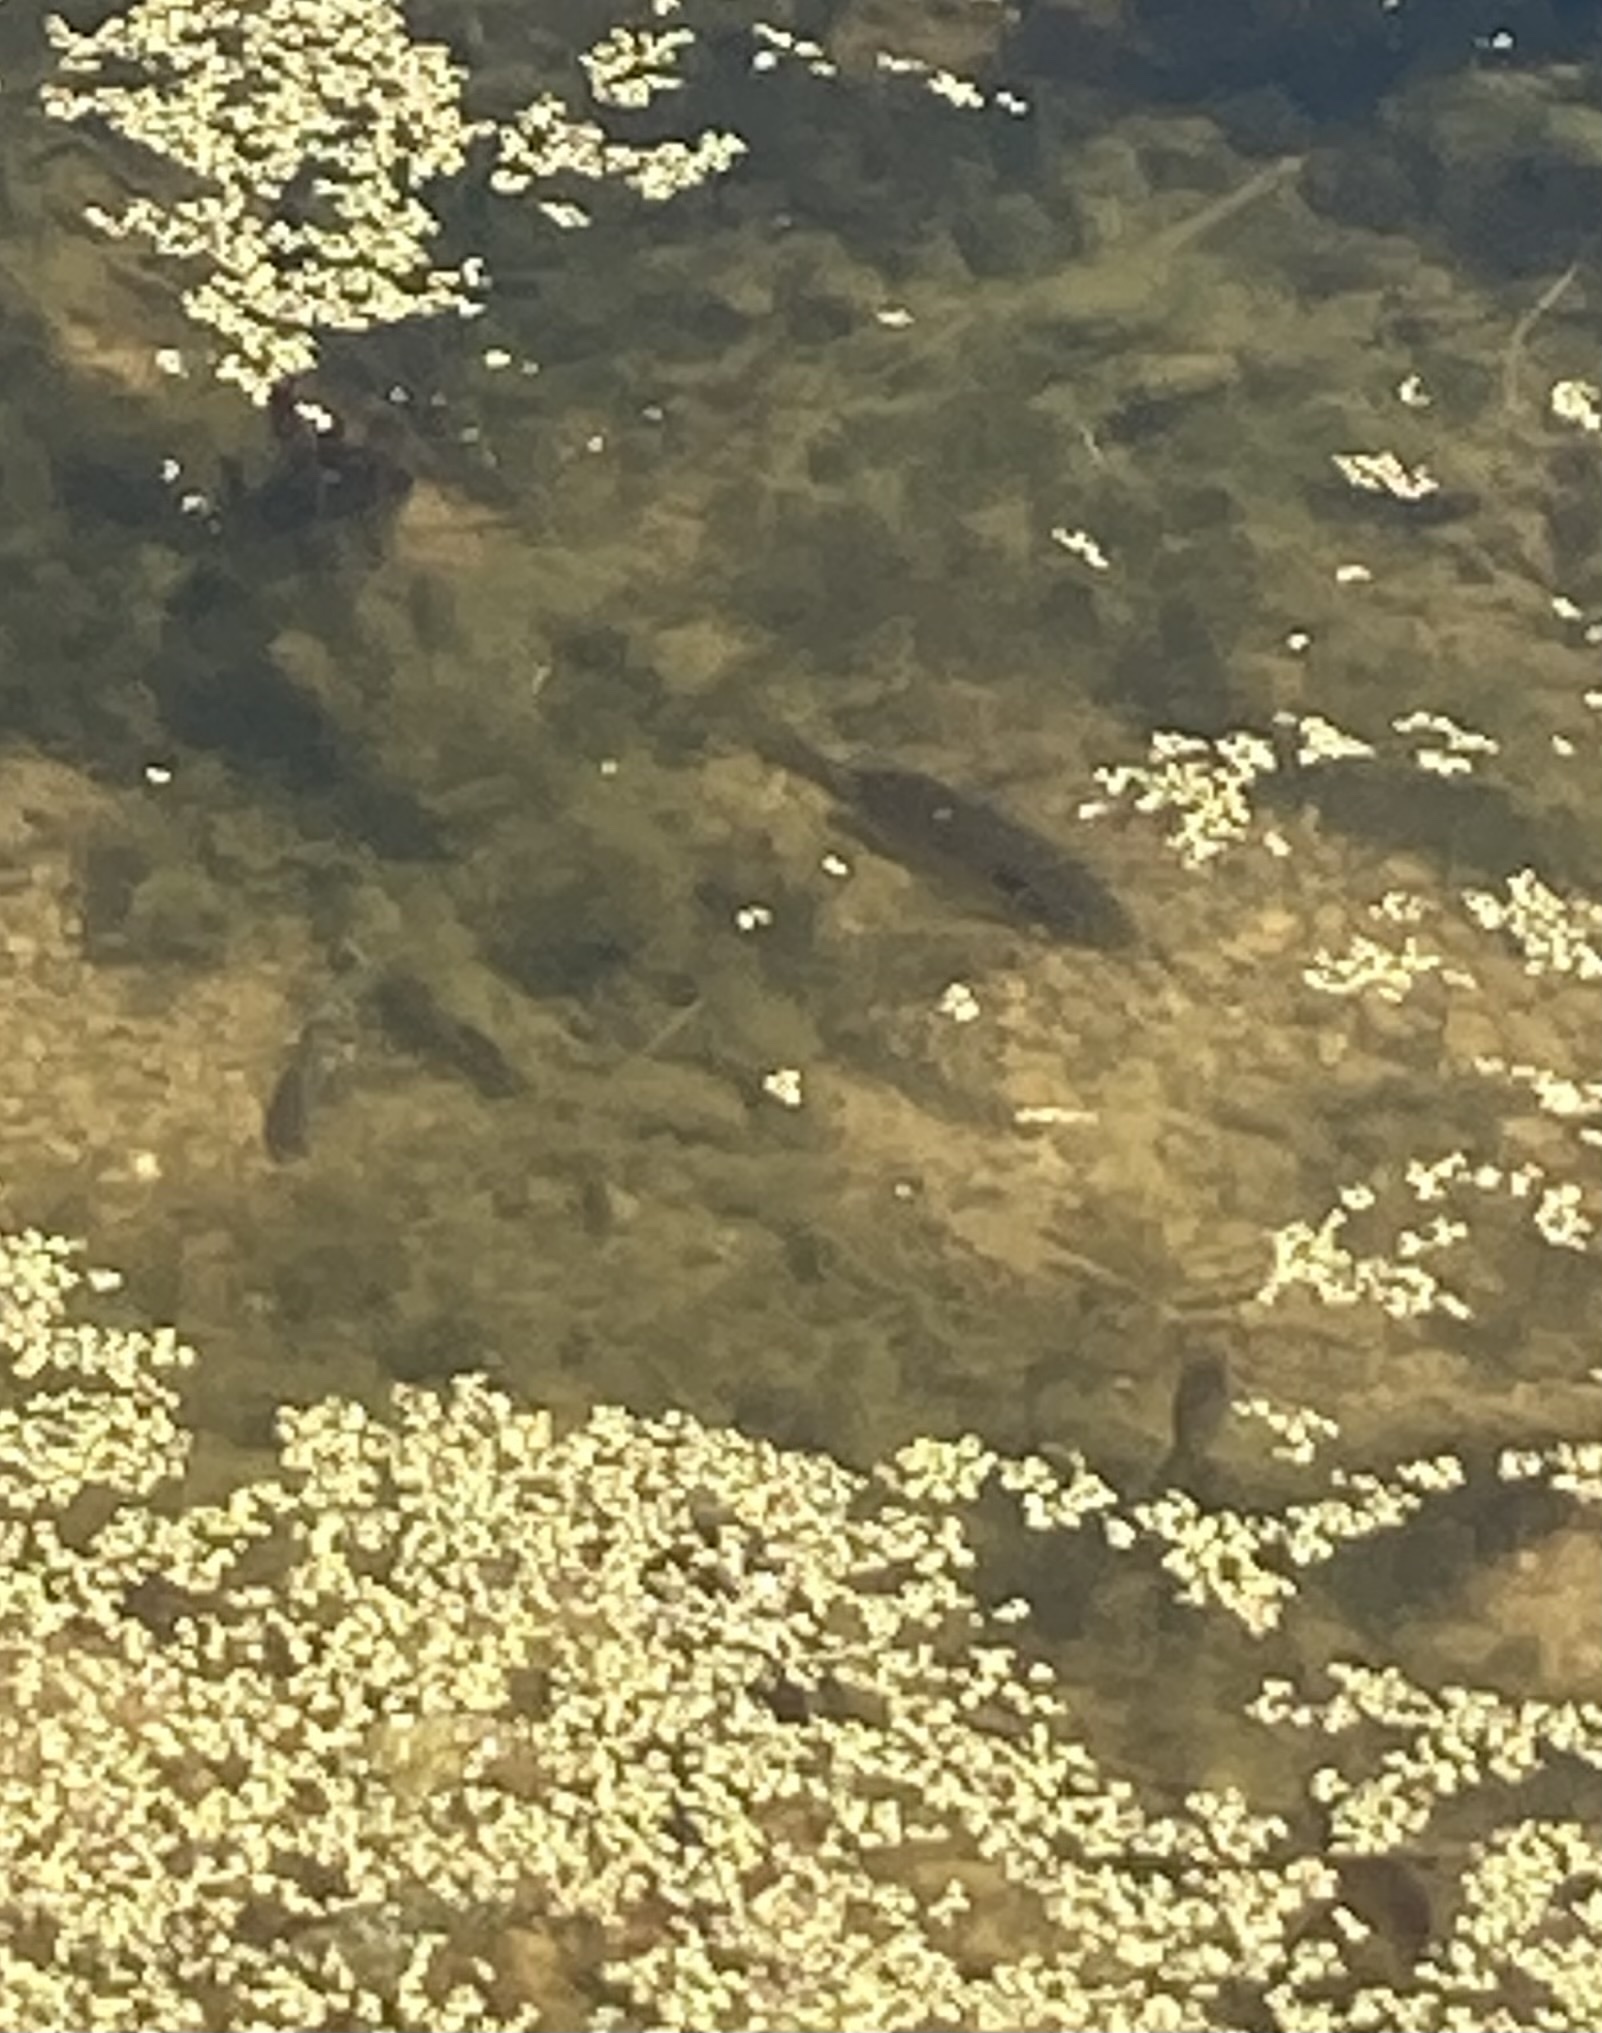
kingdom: Animalia
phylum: Chordata
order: Perciformes
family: Centrarchidae
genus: Lepomis
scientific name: Lepomis
